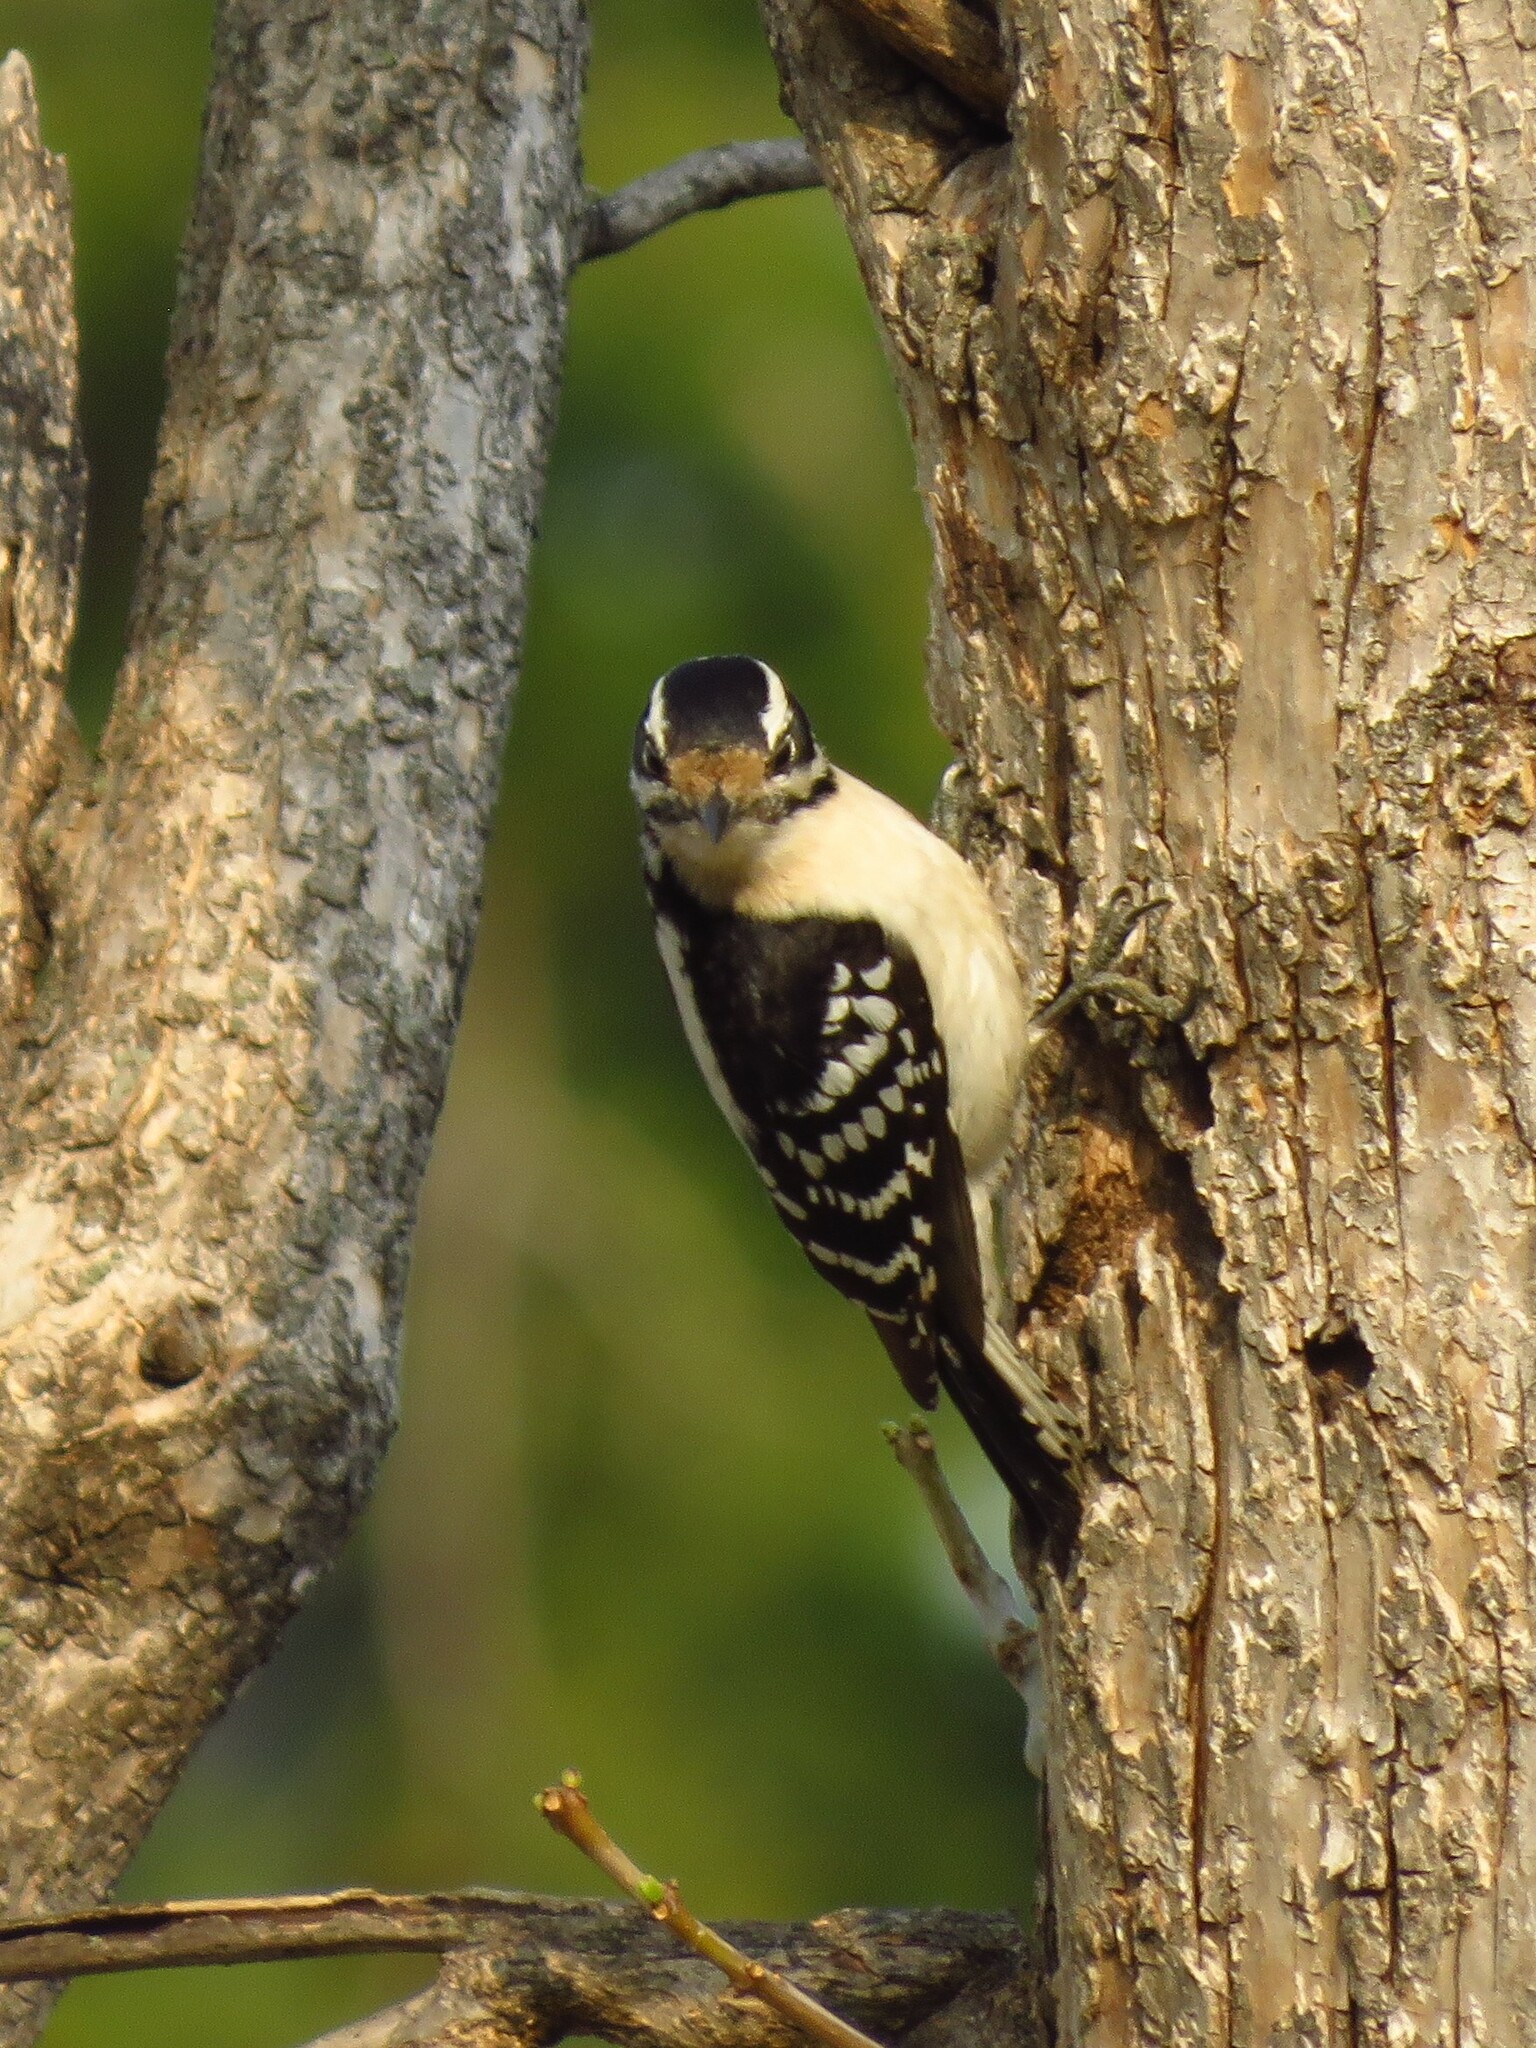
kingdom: Animalia
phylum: Chordata
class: Aves
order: Piciformes
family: Picidae
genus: Dryobates
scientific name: Dryobates pubescens
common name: Downy woodpecker
